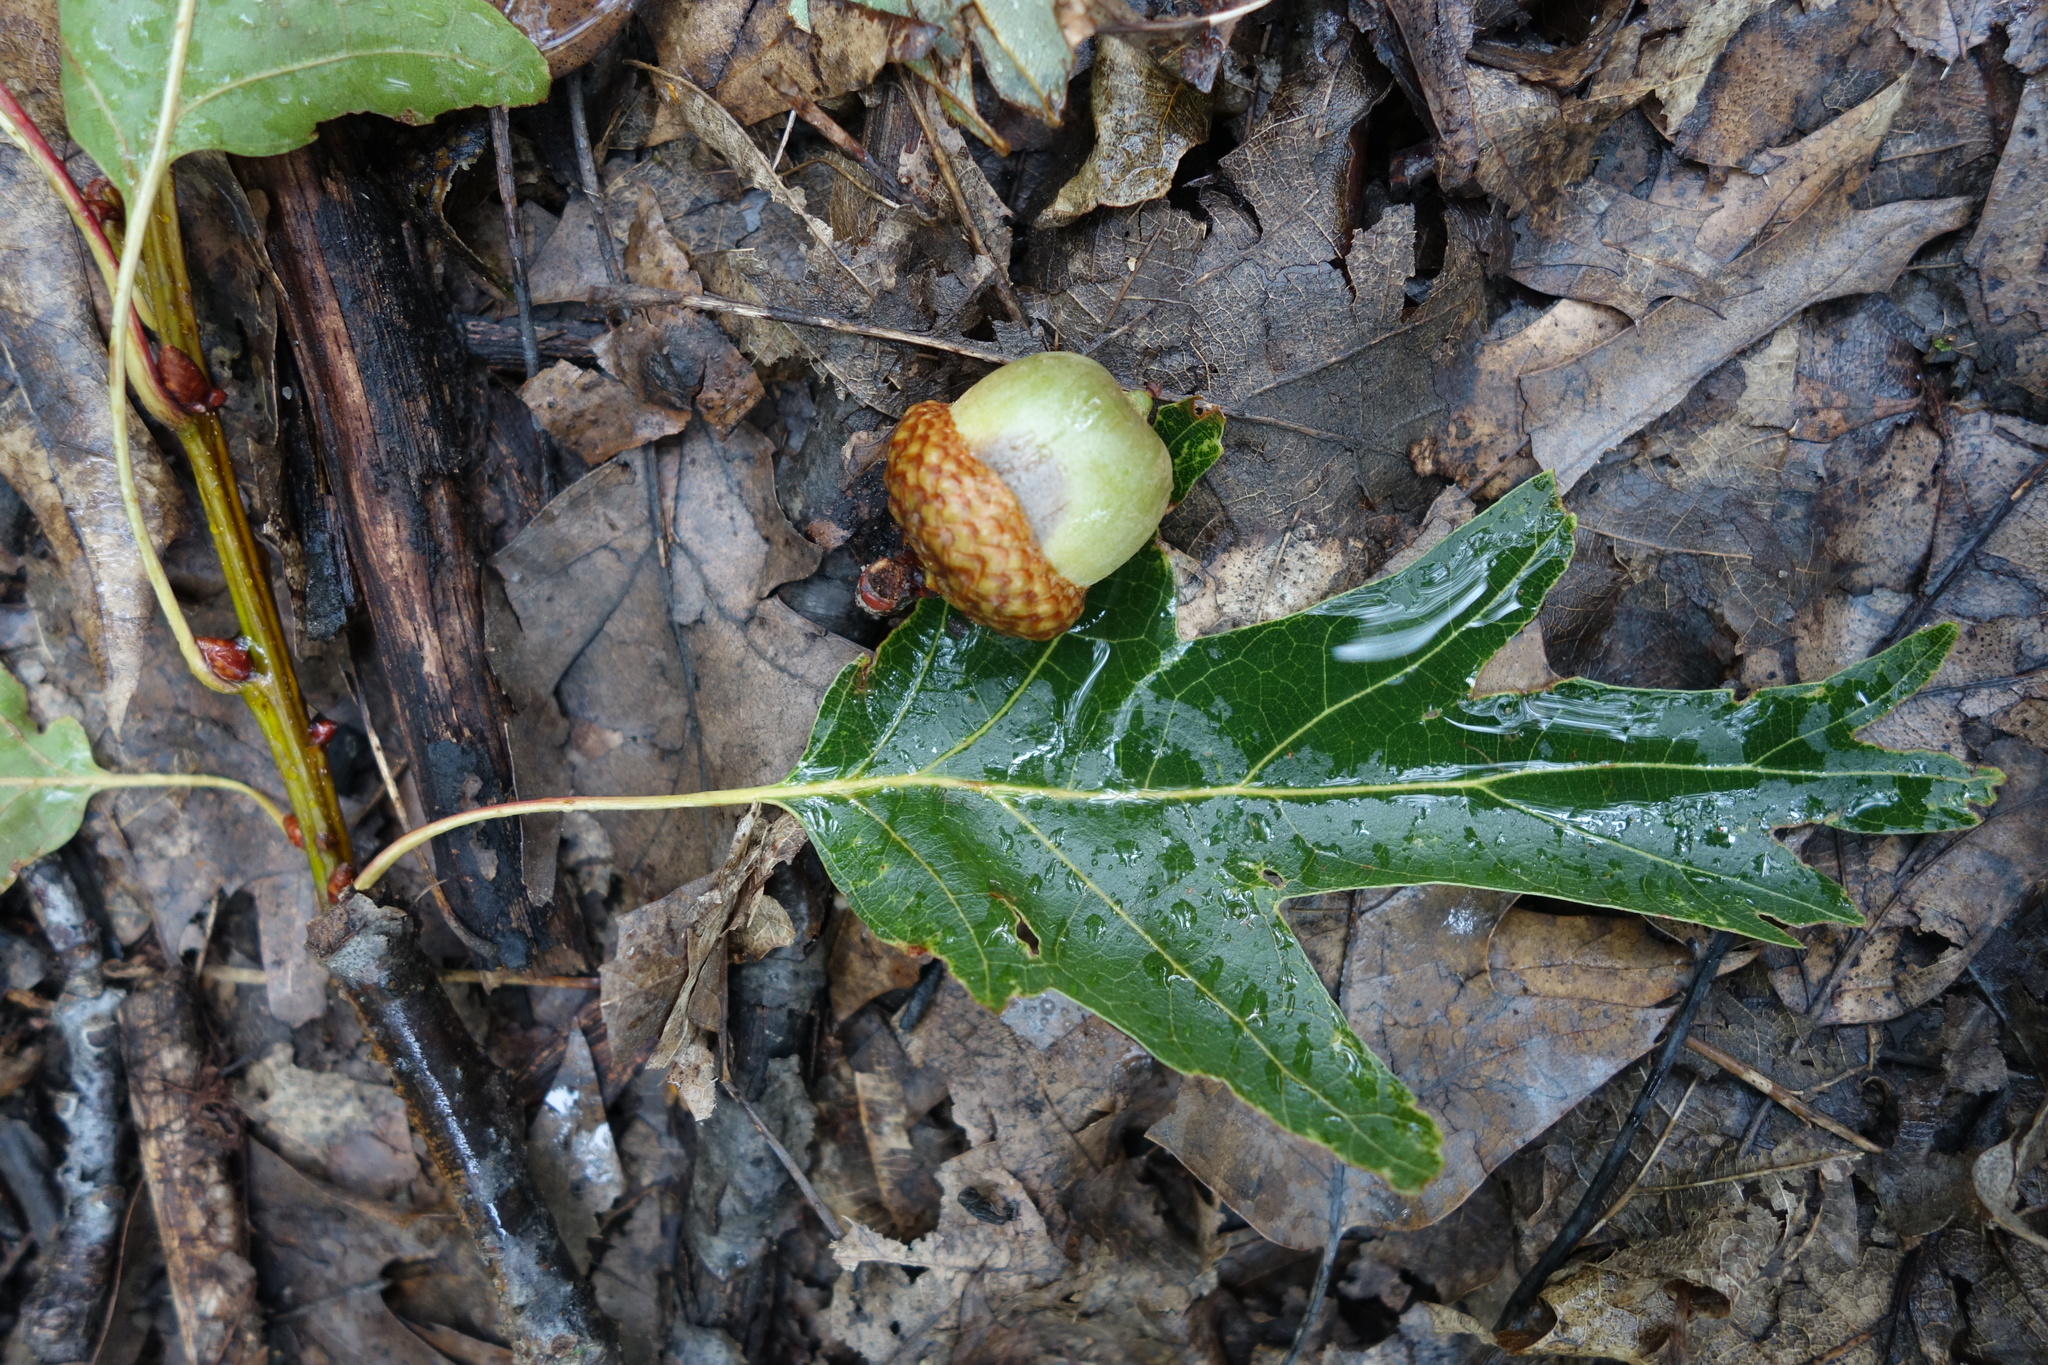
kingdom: Plantae
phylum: Tracheophyta
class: Magnoliopsida
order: Fagales
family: Fagaceae
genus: Quercus
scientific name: Quercus rubra
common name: Red oak
